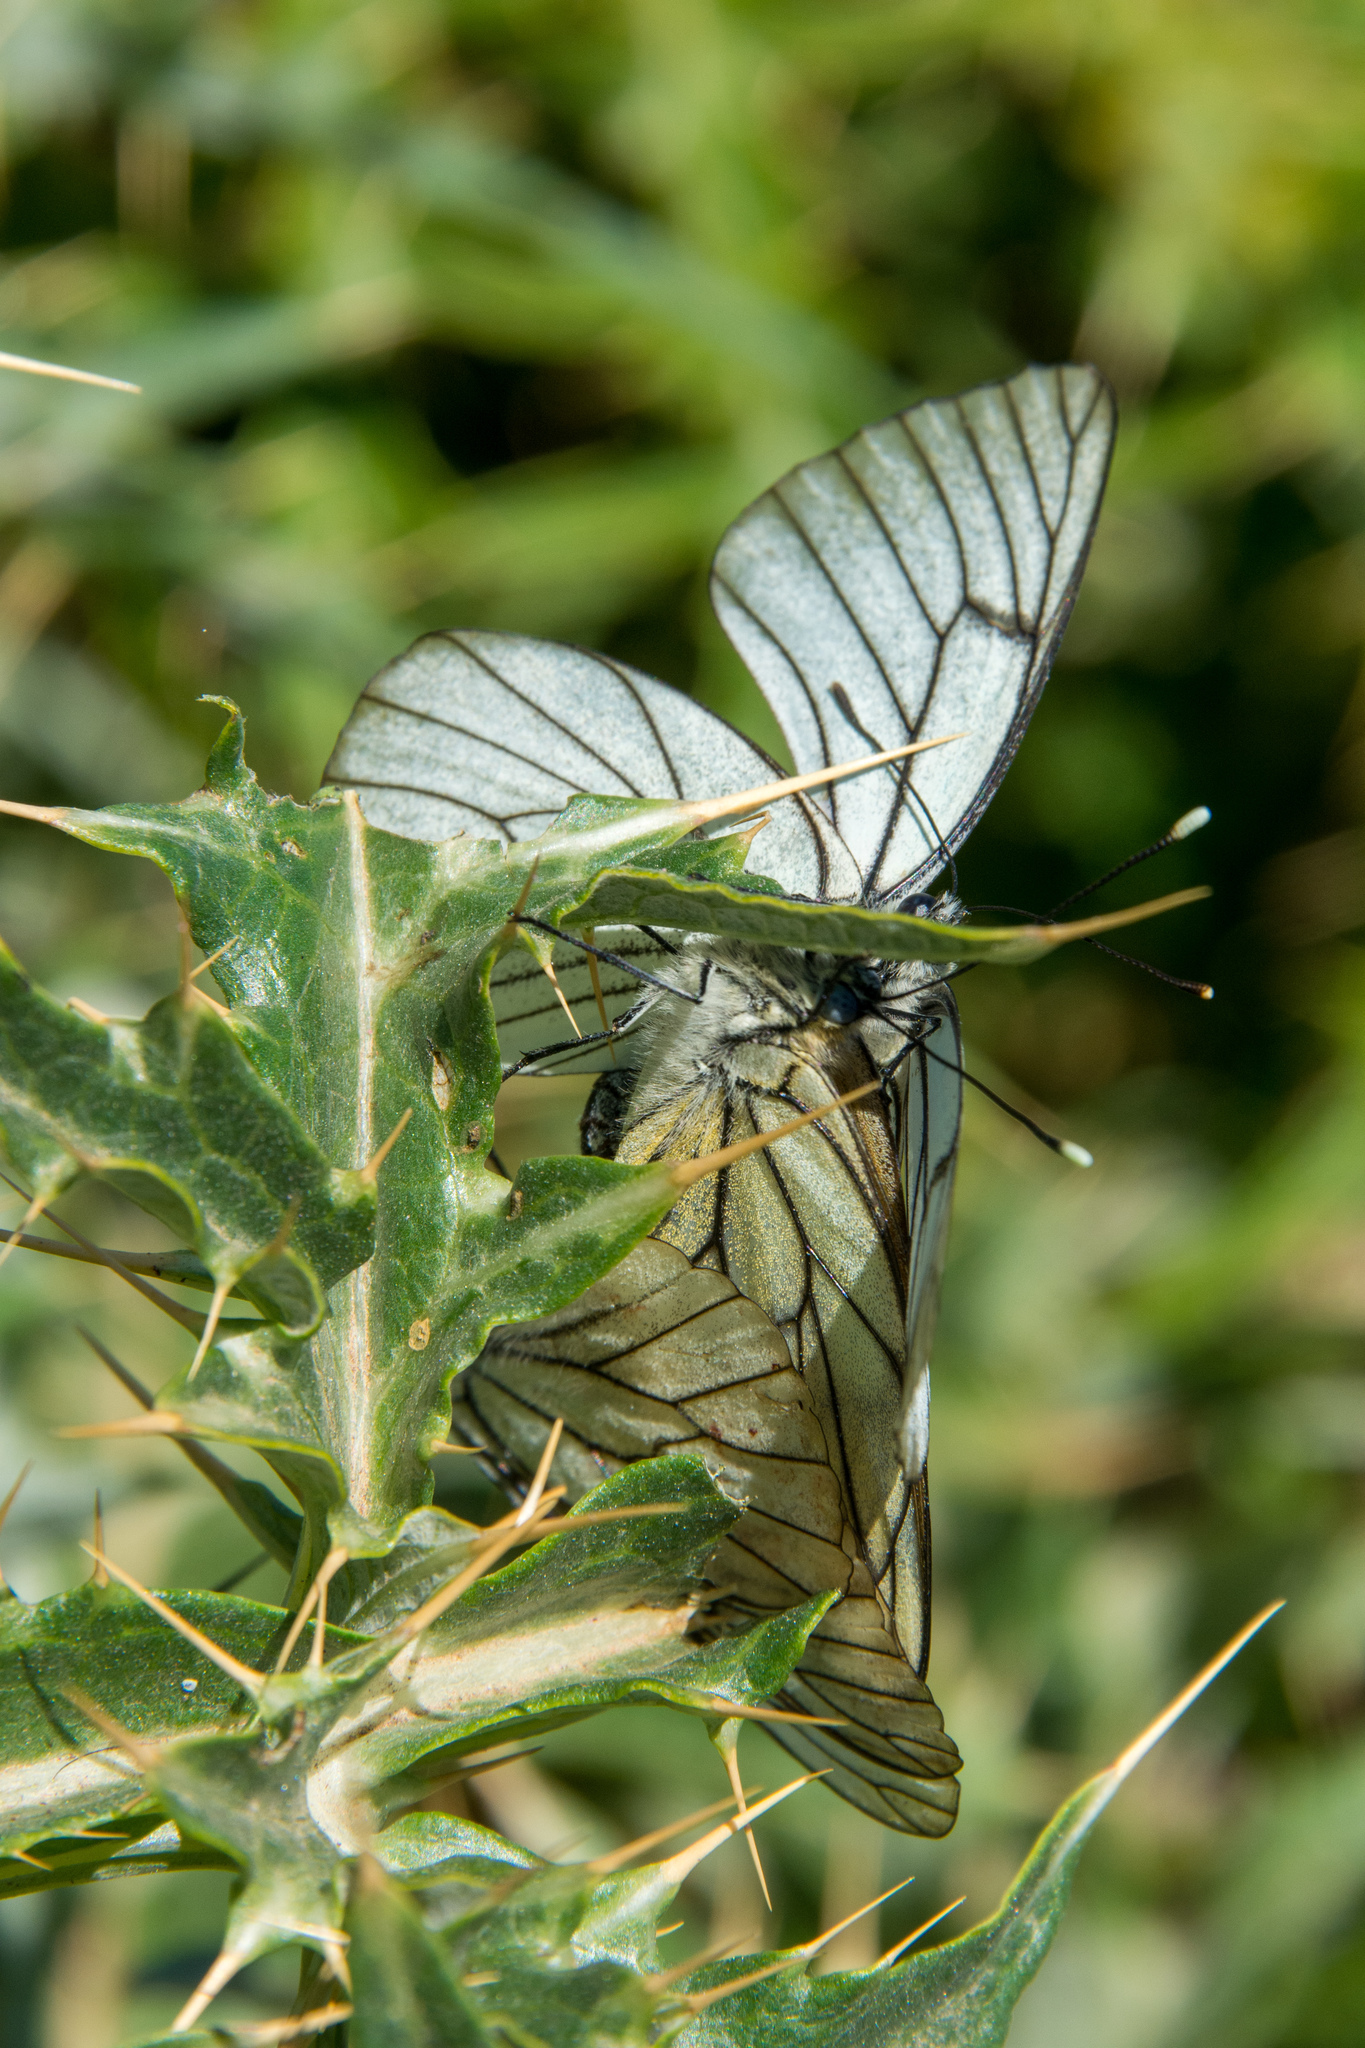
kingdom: Animalia
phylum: Arthropoda
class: Insecta
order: Lepidoptera
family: Pieridae
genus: Aporia
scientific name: Aporia crataegi
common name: Black-veined white
